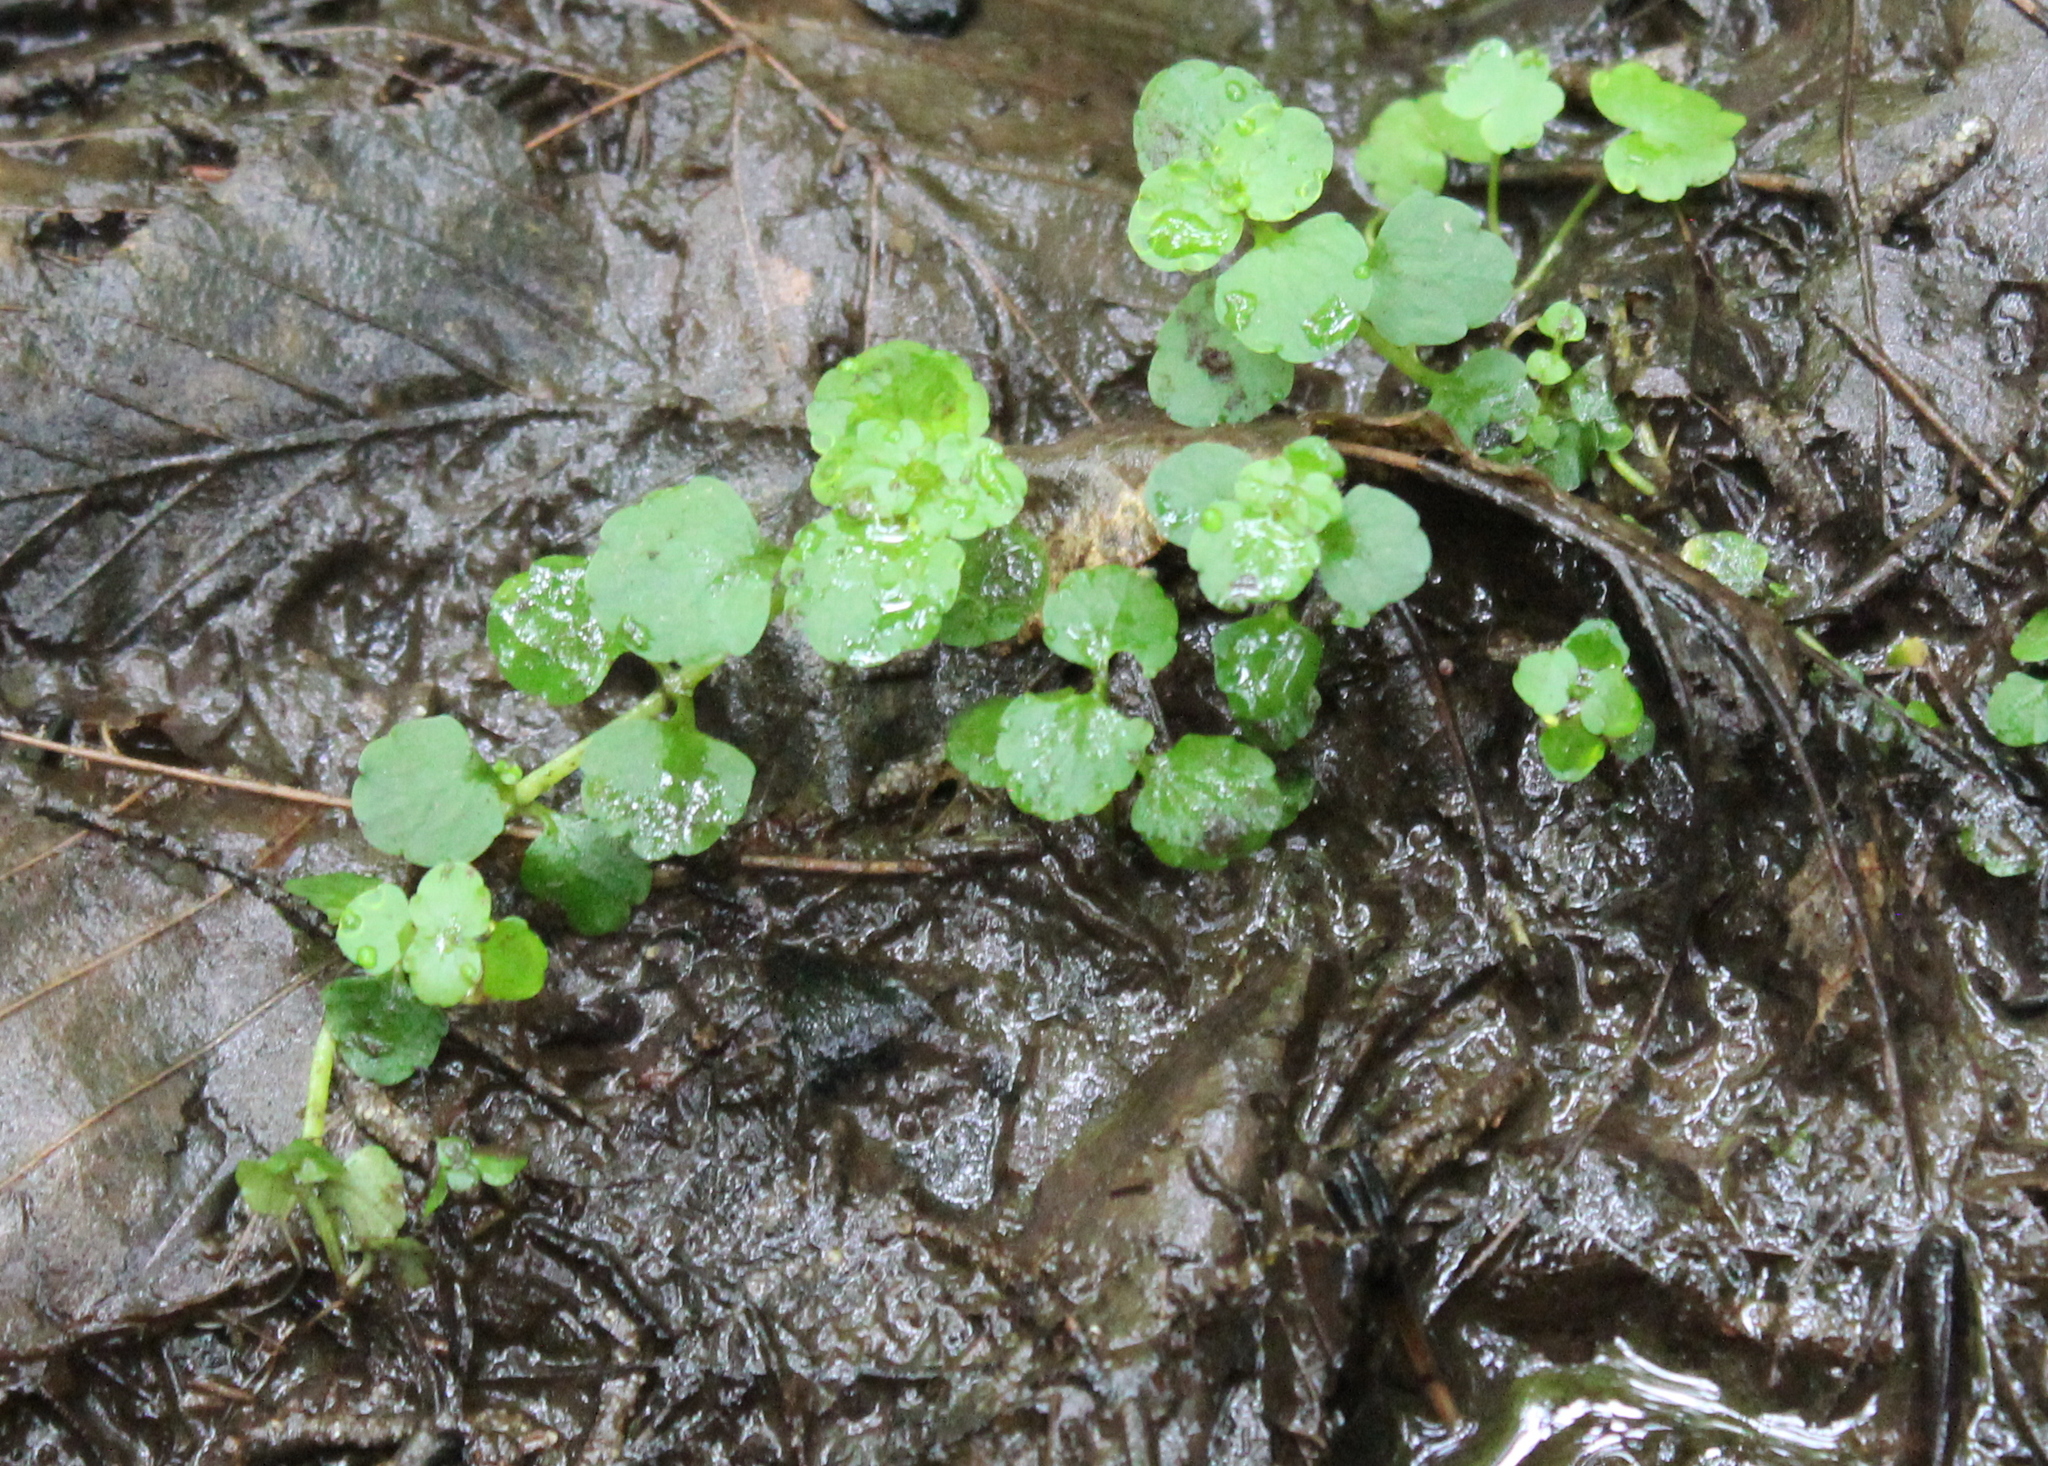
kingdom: Plantae
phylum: Tracheophyta
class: Magnoliopsida
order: Saxifragales
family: Saxifragaceae
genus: Chrysosplenium
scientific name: Chrysosplenium americanum
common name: American golden-saxifrage
